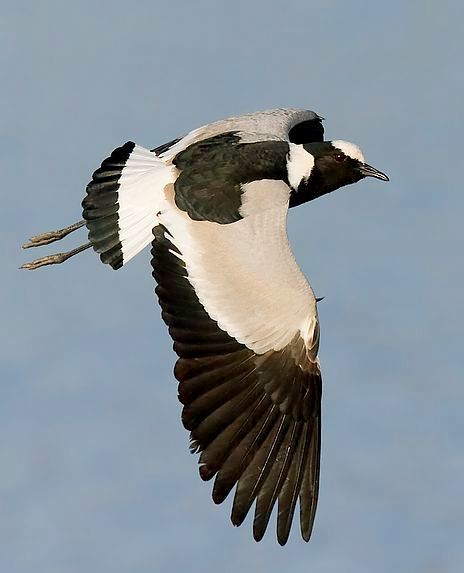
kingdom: Animalia
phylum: Chordata
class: Aves
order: Charadriiformes
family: Charadriidae
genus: Vanellus
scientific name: Vanellus armatus
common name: Blacksmith lapwing
